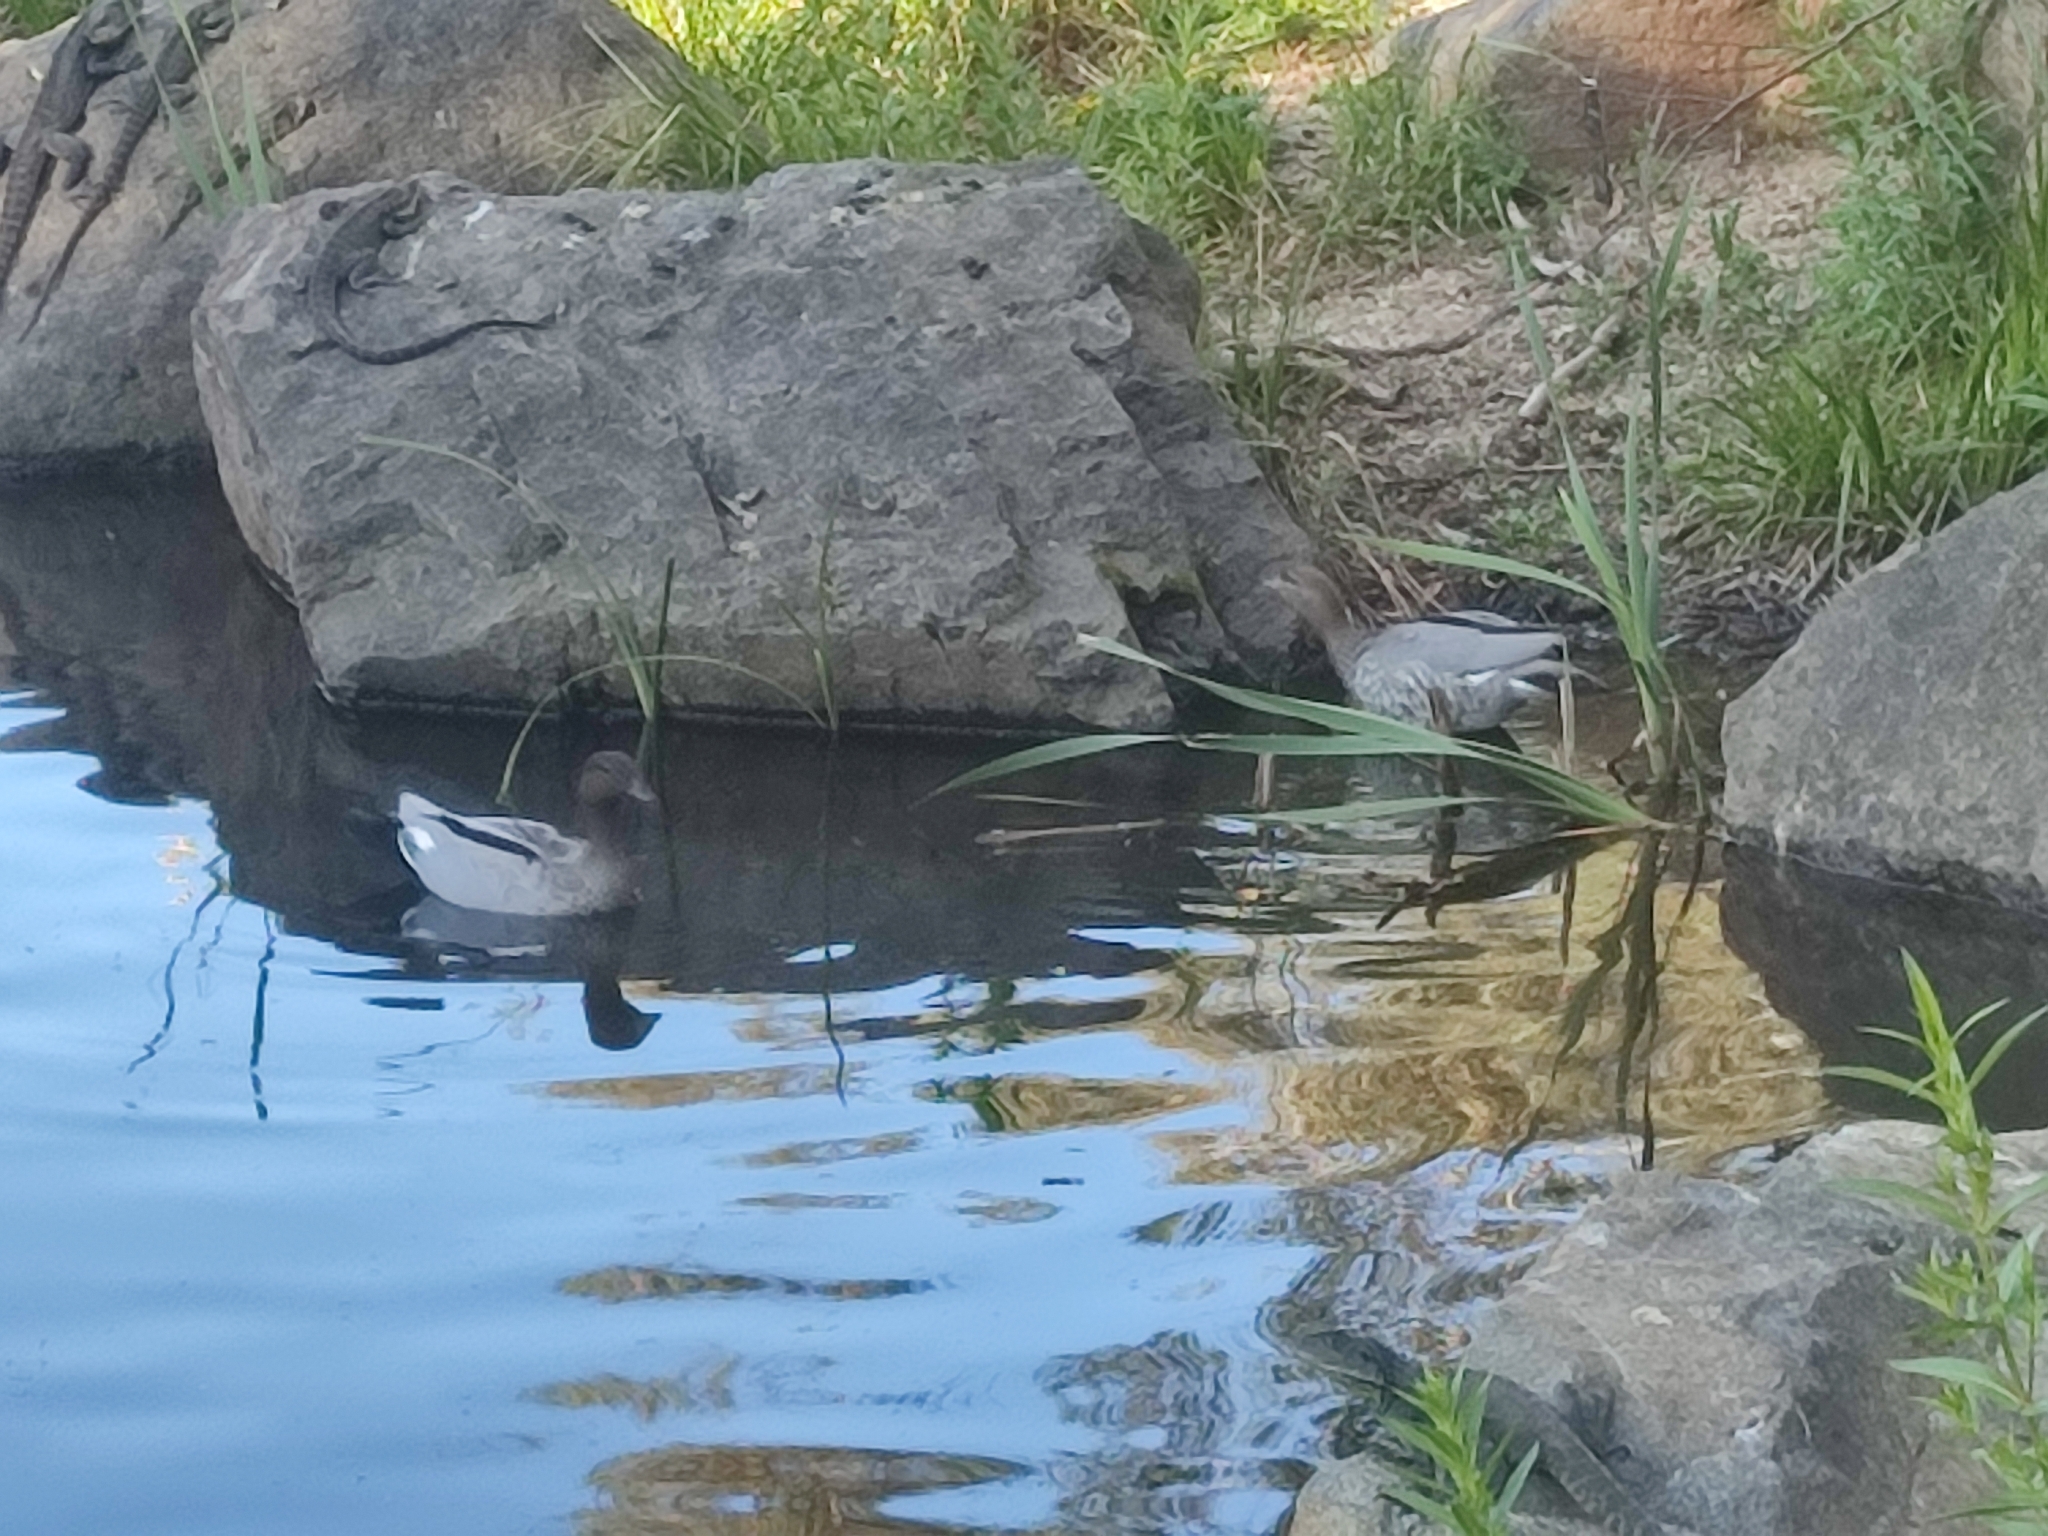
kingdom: Animalia
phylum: Chordata
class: Aves
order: Anseriformes
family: Anatidae
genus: Chenonetta
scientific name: Chenonetta jubata
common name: Maned duck
